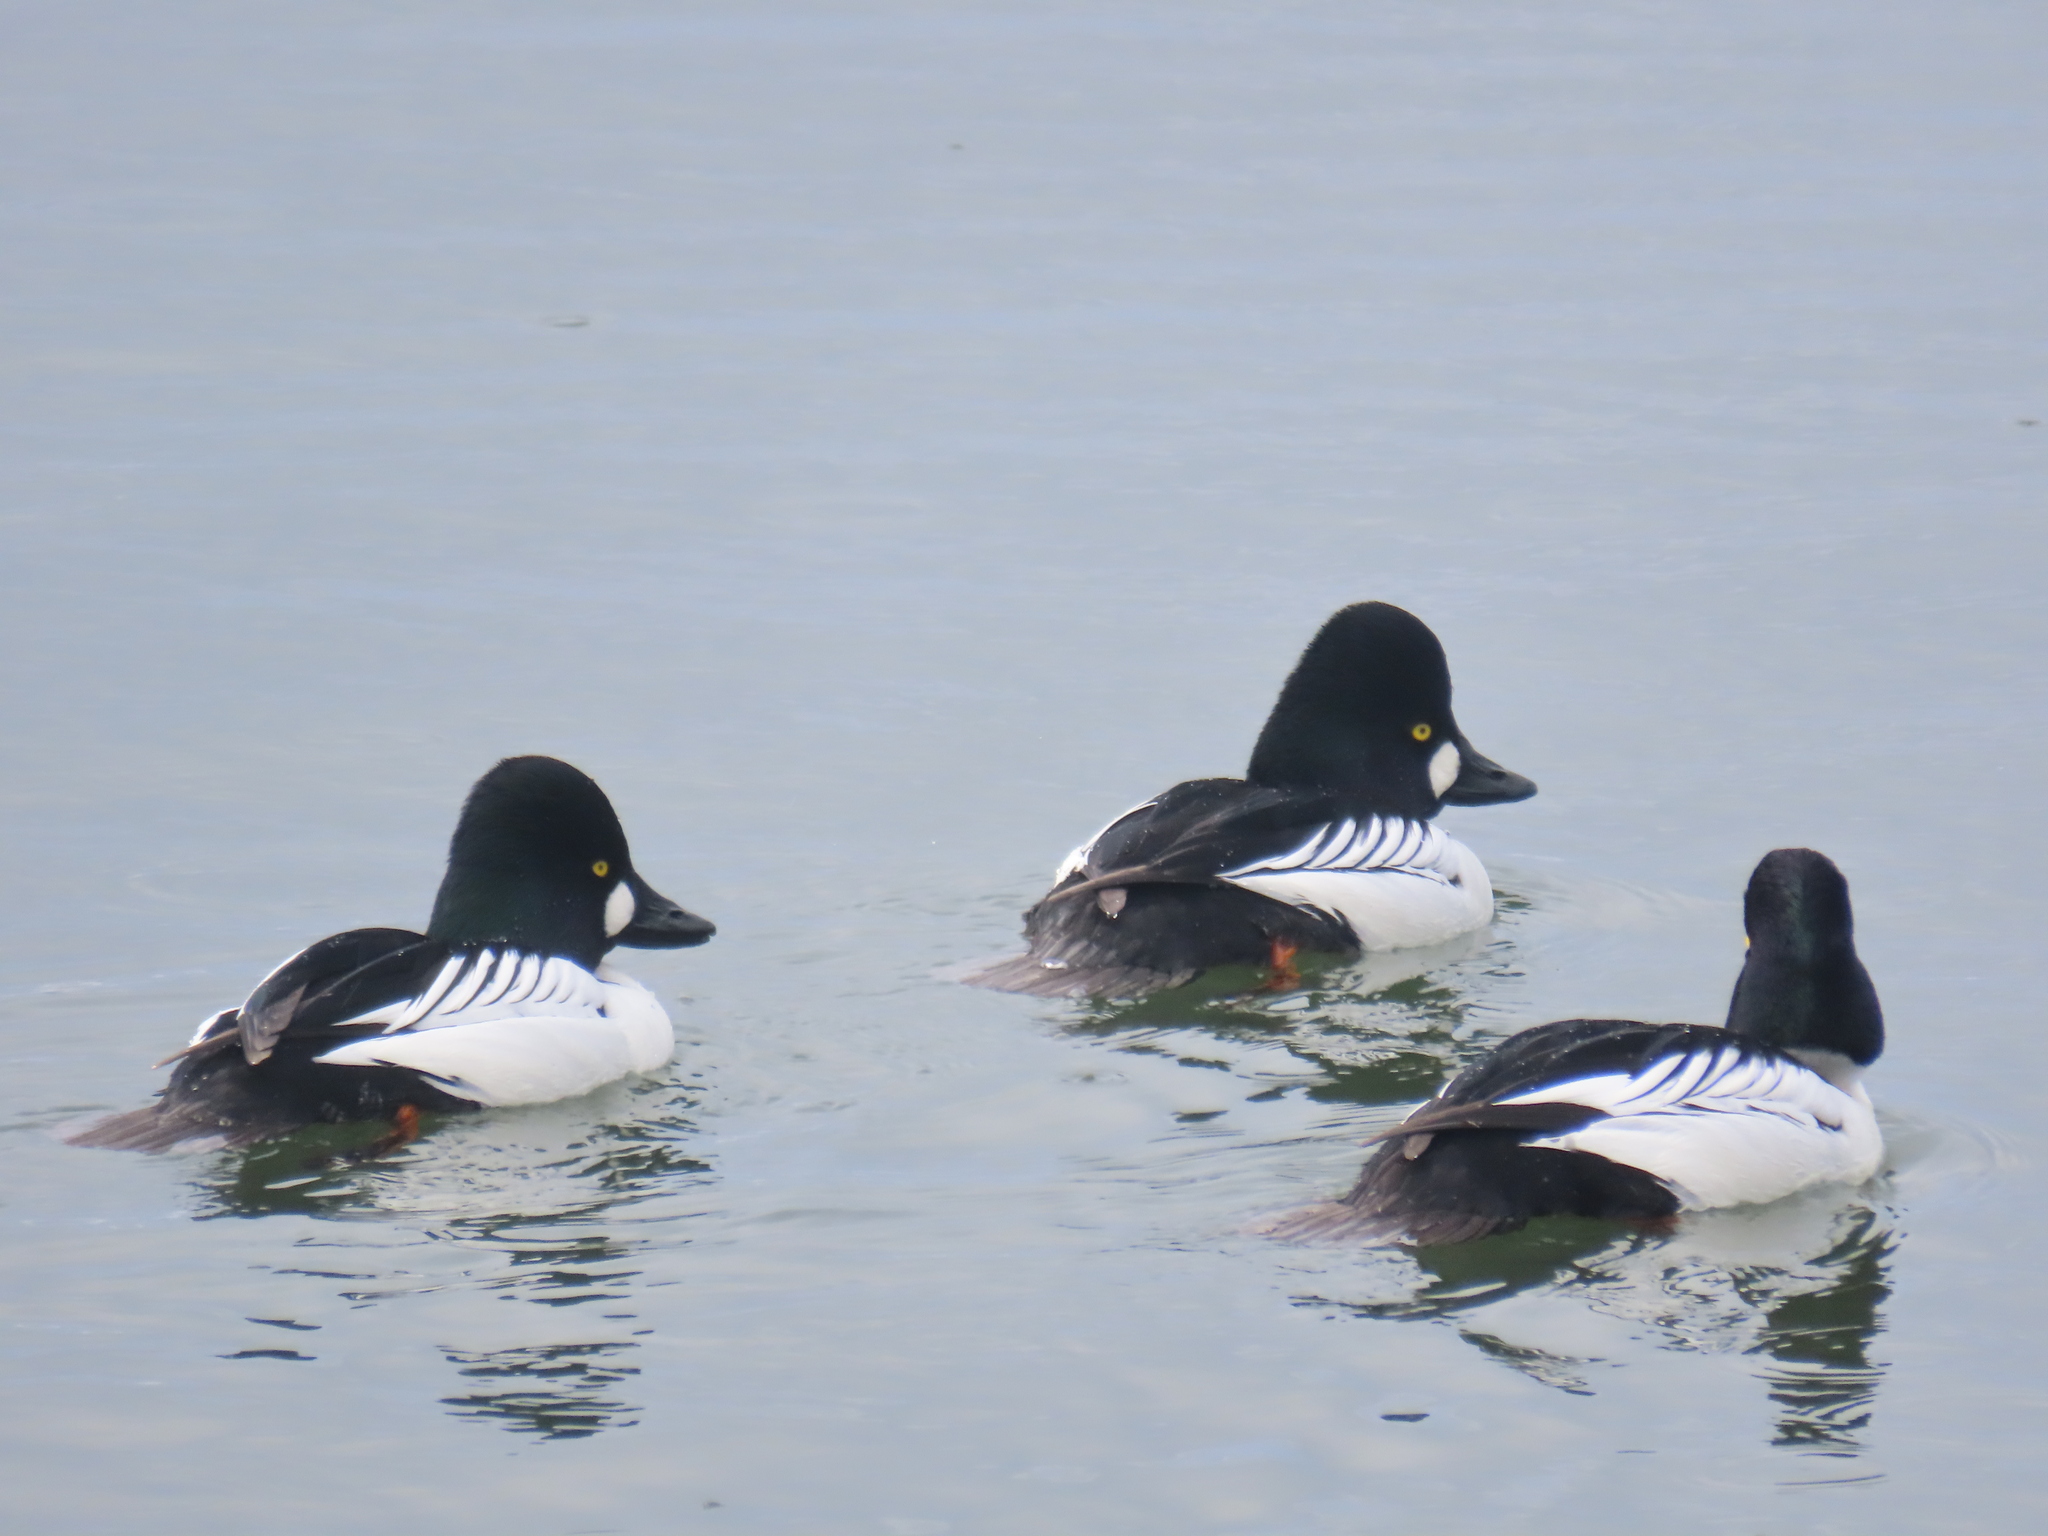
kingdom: Animalia
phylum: Chordata
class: Aves
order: Anseriformes
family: Anatidae
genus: Bucephala
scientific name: Bucephala clangula
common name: Common goldeneye
